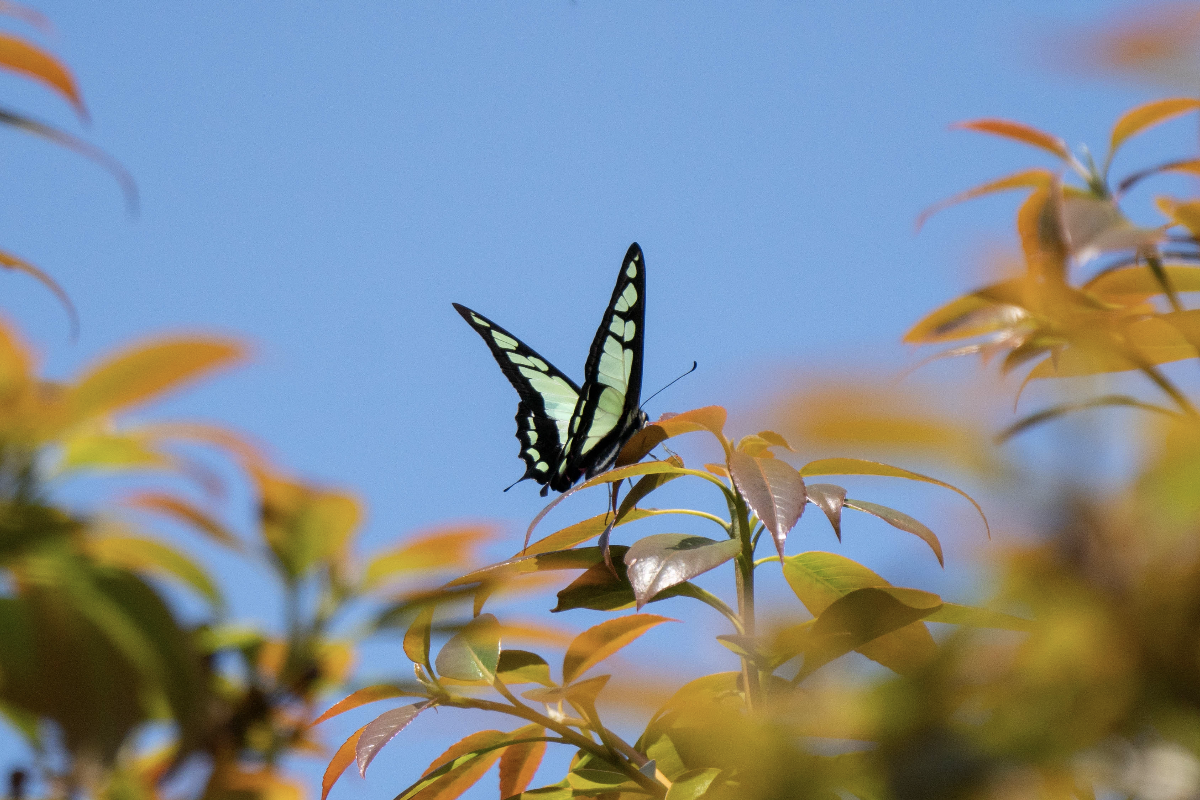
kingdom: Animalia
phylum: Arthropoda
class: Insecta
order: Lepidoptera
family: Papilionidae
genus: Graphium
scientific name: Graphium cloanthus
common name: Glassy bluebottle
